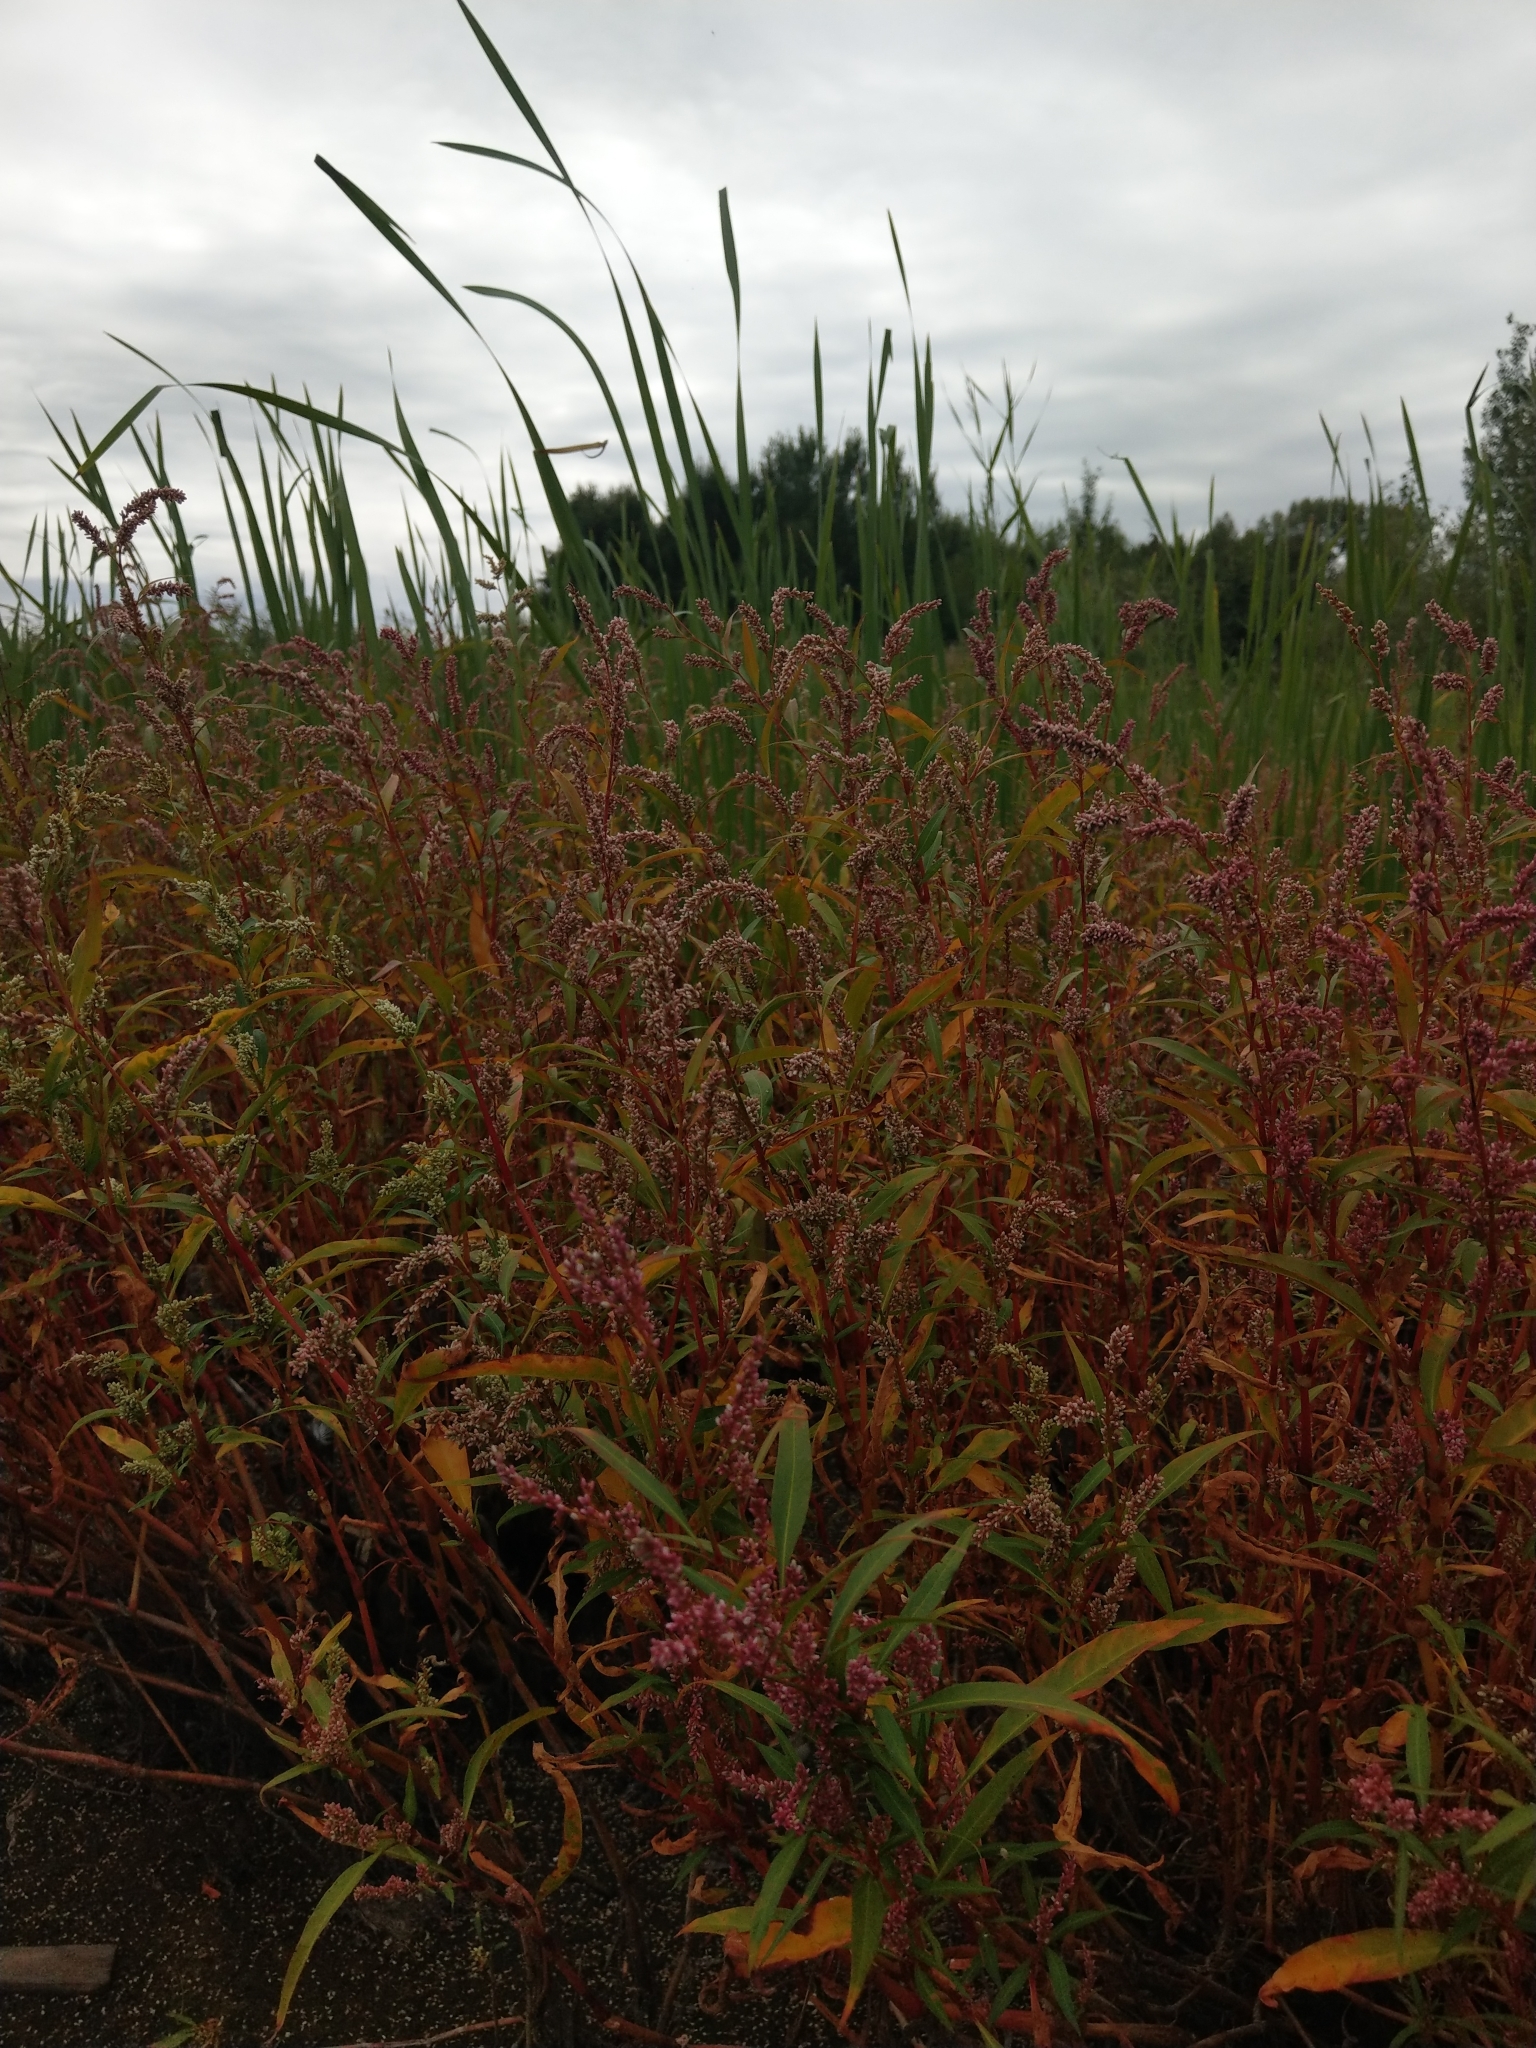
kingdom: Plantae
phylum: Tracheophyta
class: Magnoliopsida
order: Caryophyllales
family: Polygonaceae
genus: Persicaria
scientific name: Persicaria lapathifolia
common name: Curlytop knotweed
